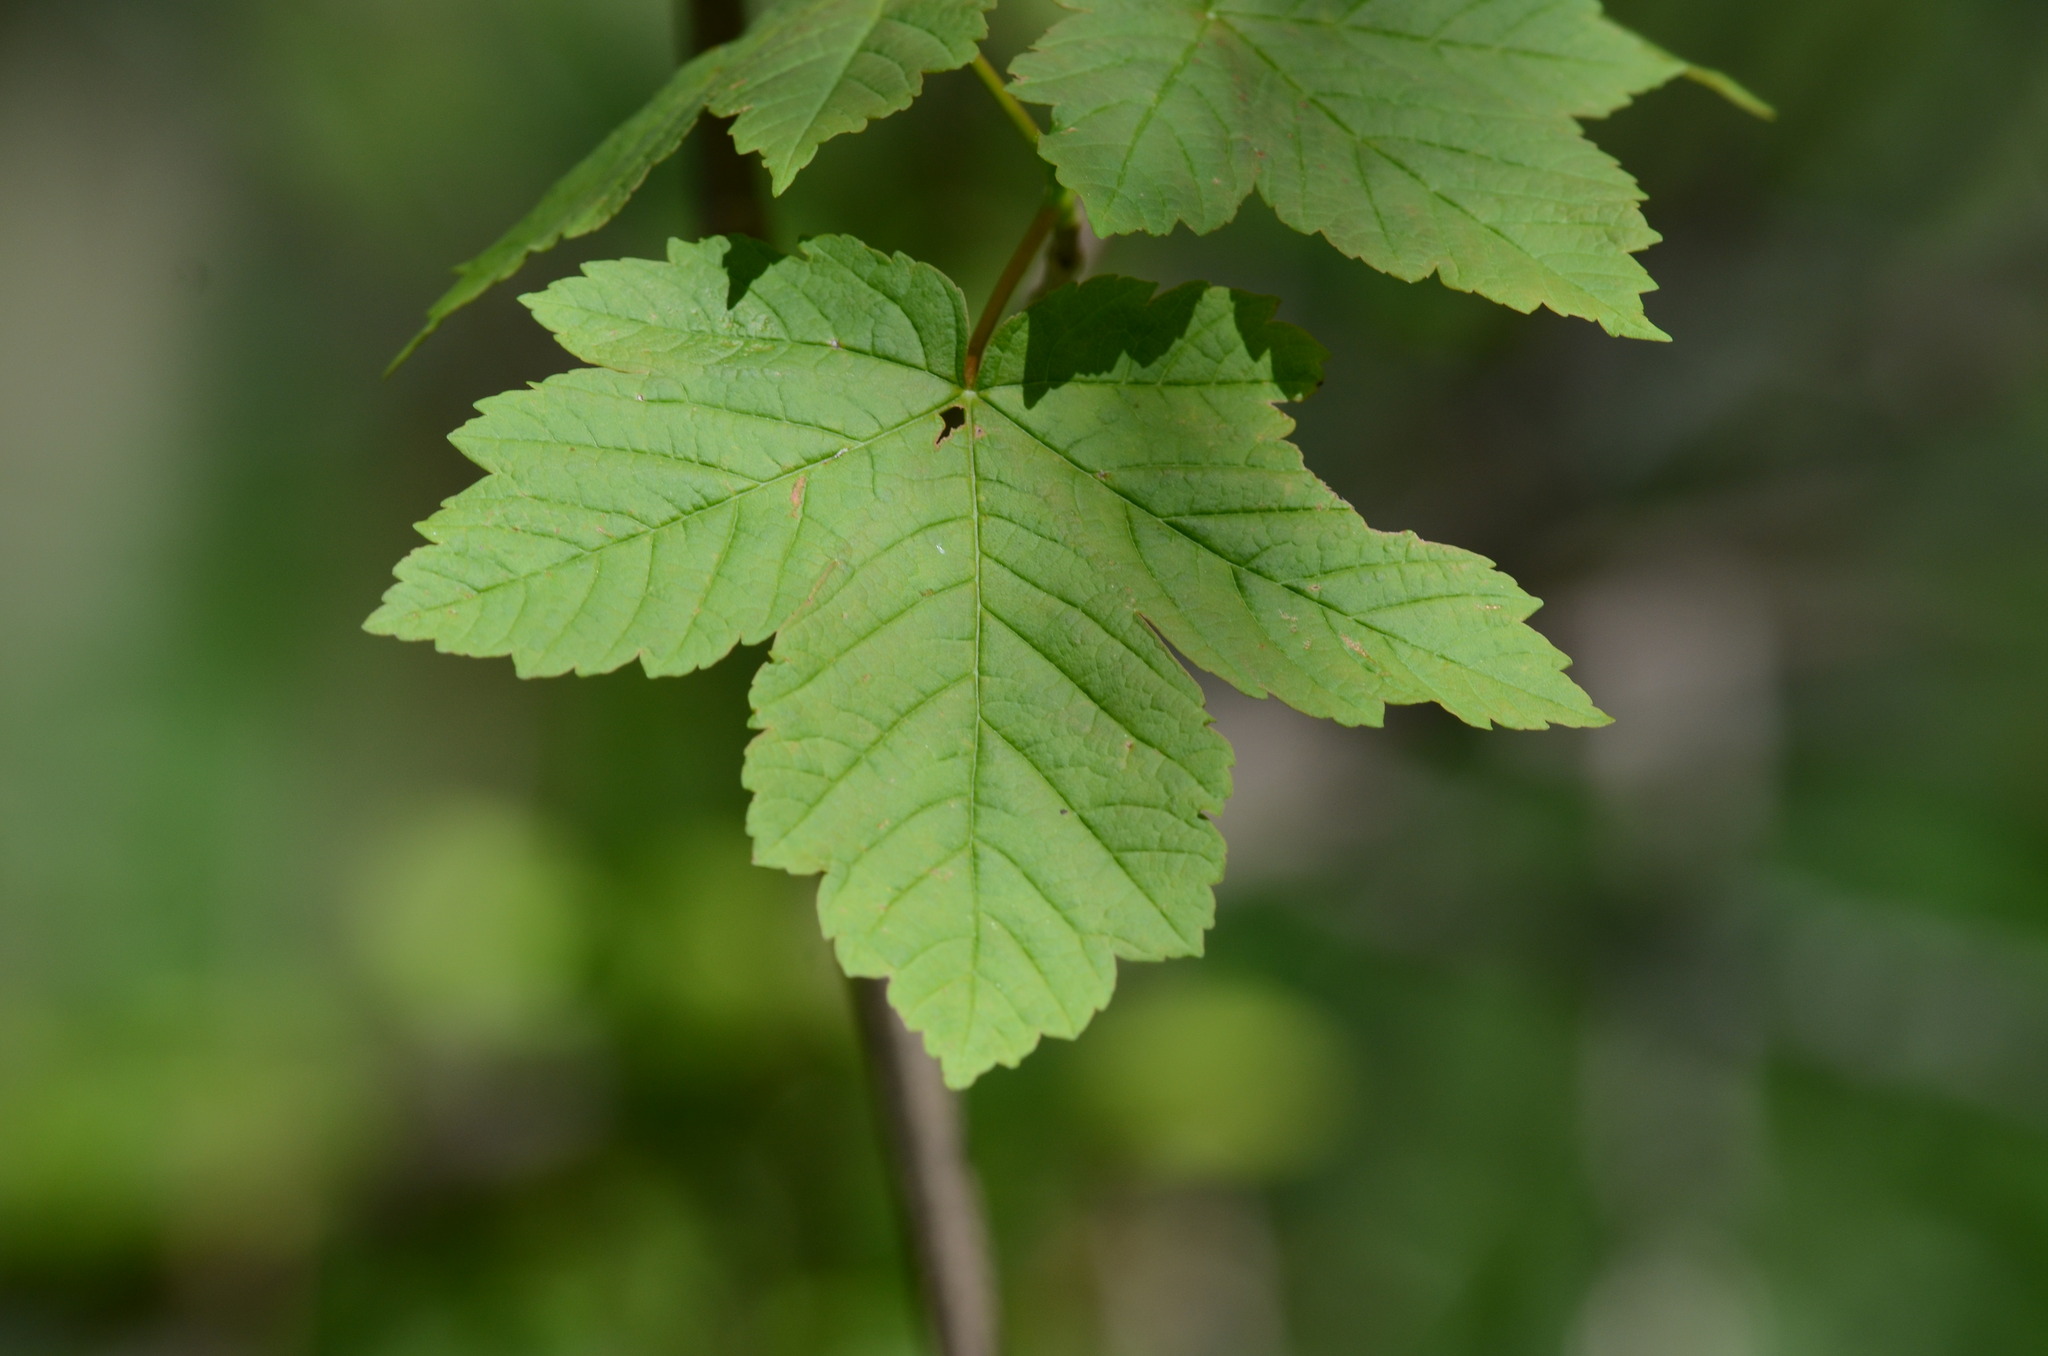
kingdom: Plantae
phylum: Tracheophyta
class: Magnoliopsida
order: Sapindales
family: Sapindaceae
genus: Acer
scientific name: Acer pseudoplatanus
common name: Sycamore
